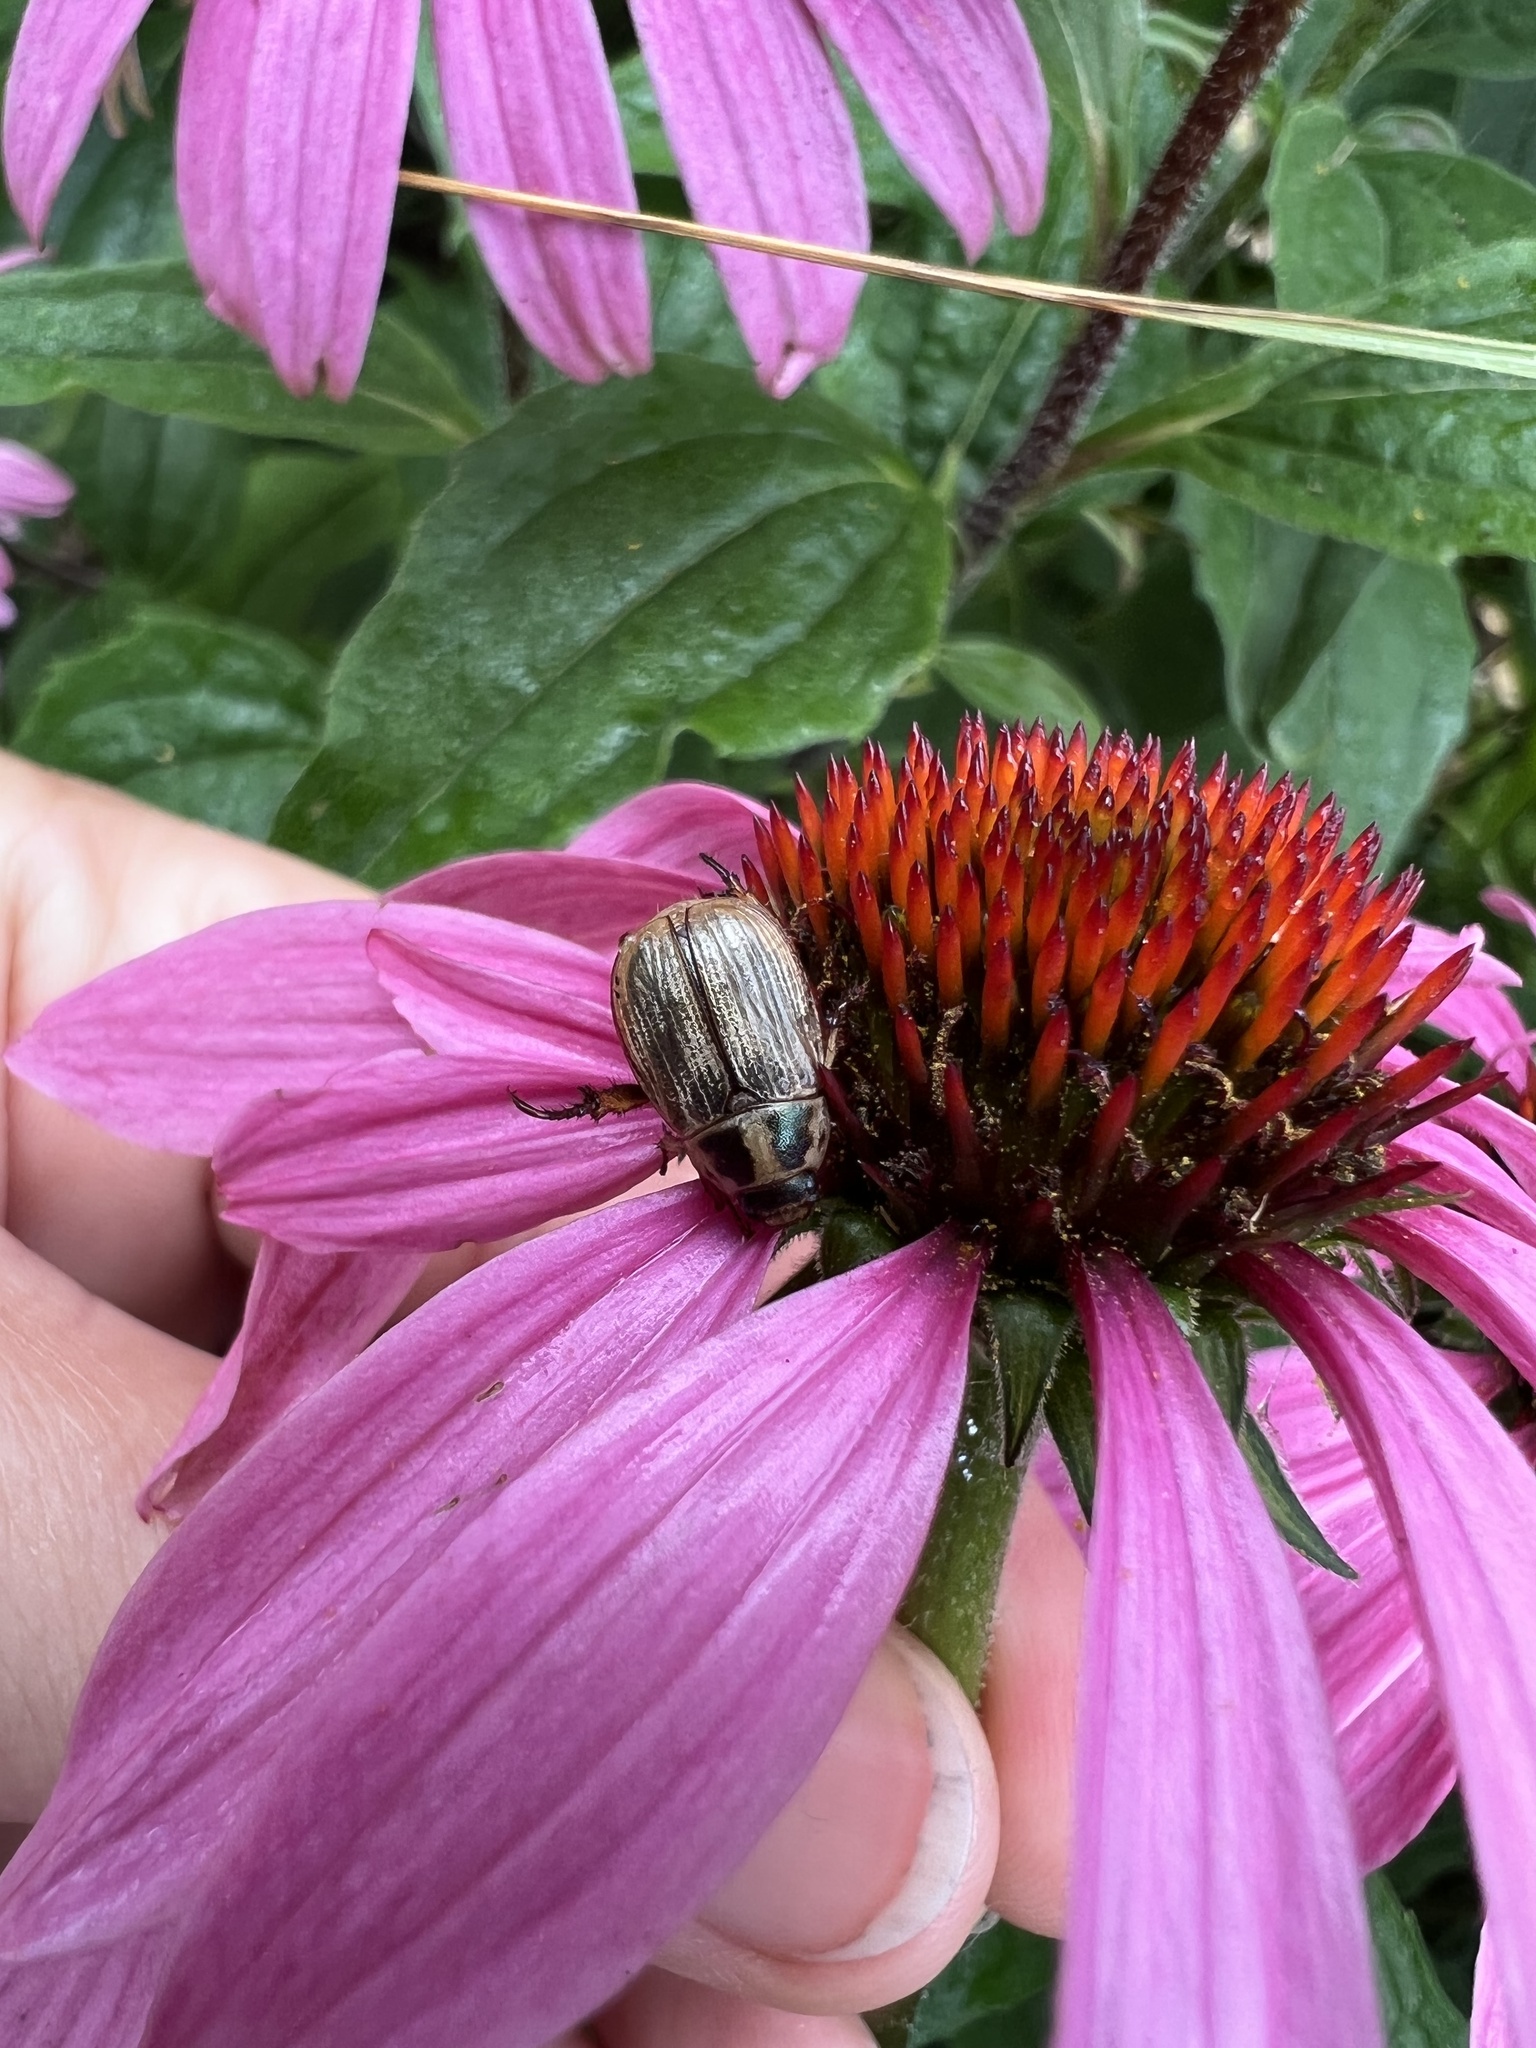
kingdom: Animalia
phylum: Arthropoda
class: Insecta
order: Coleoptera
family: Scarabaeidae
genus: Exomala
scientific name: Exomala orientalis
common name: Oriental beetle
